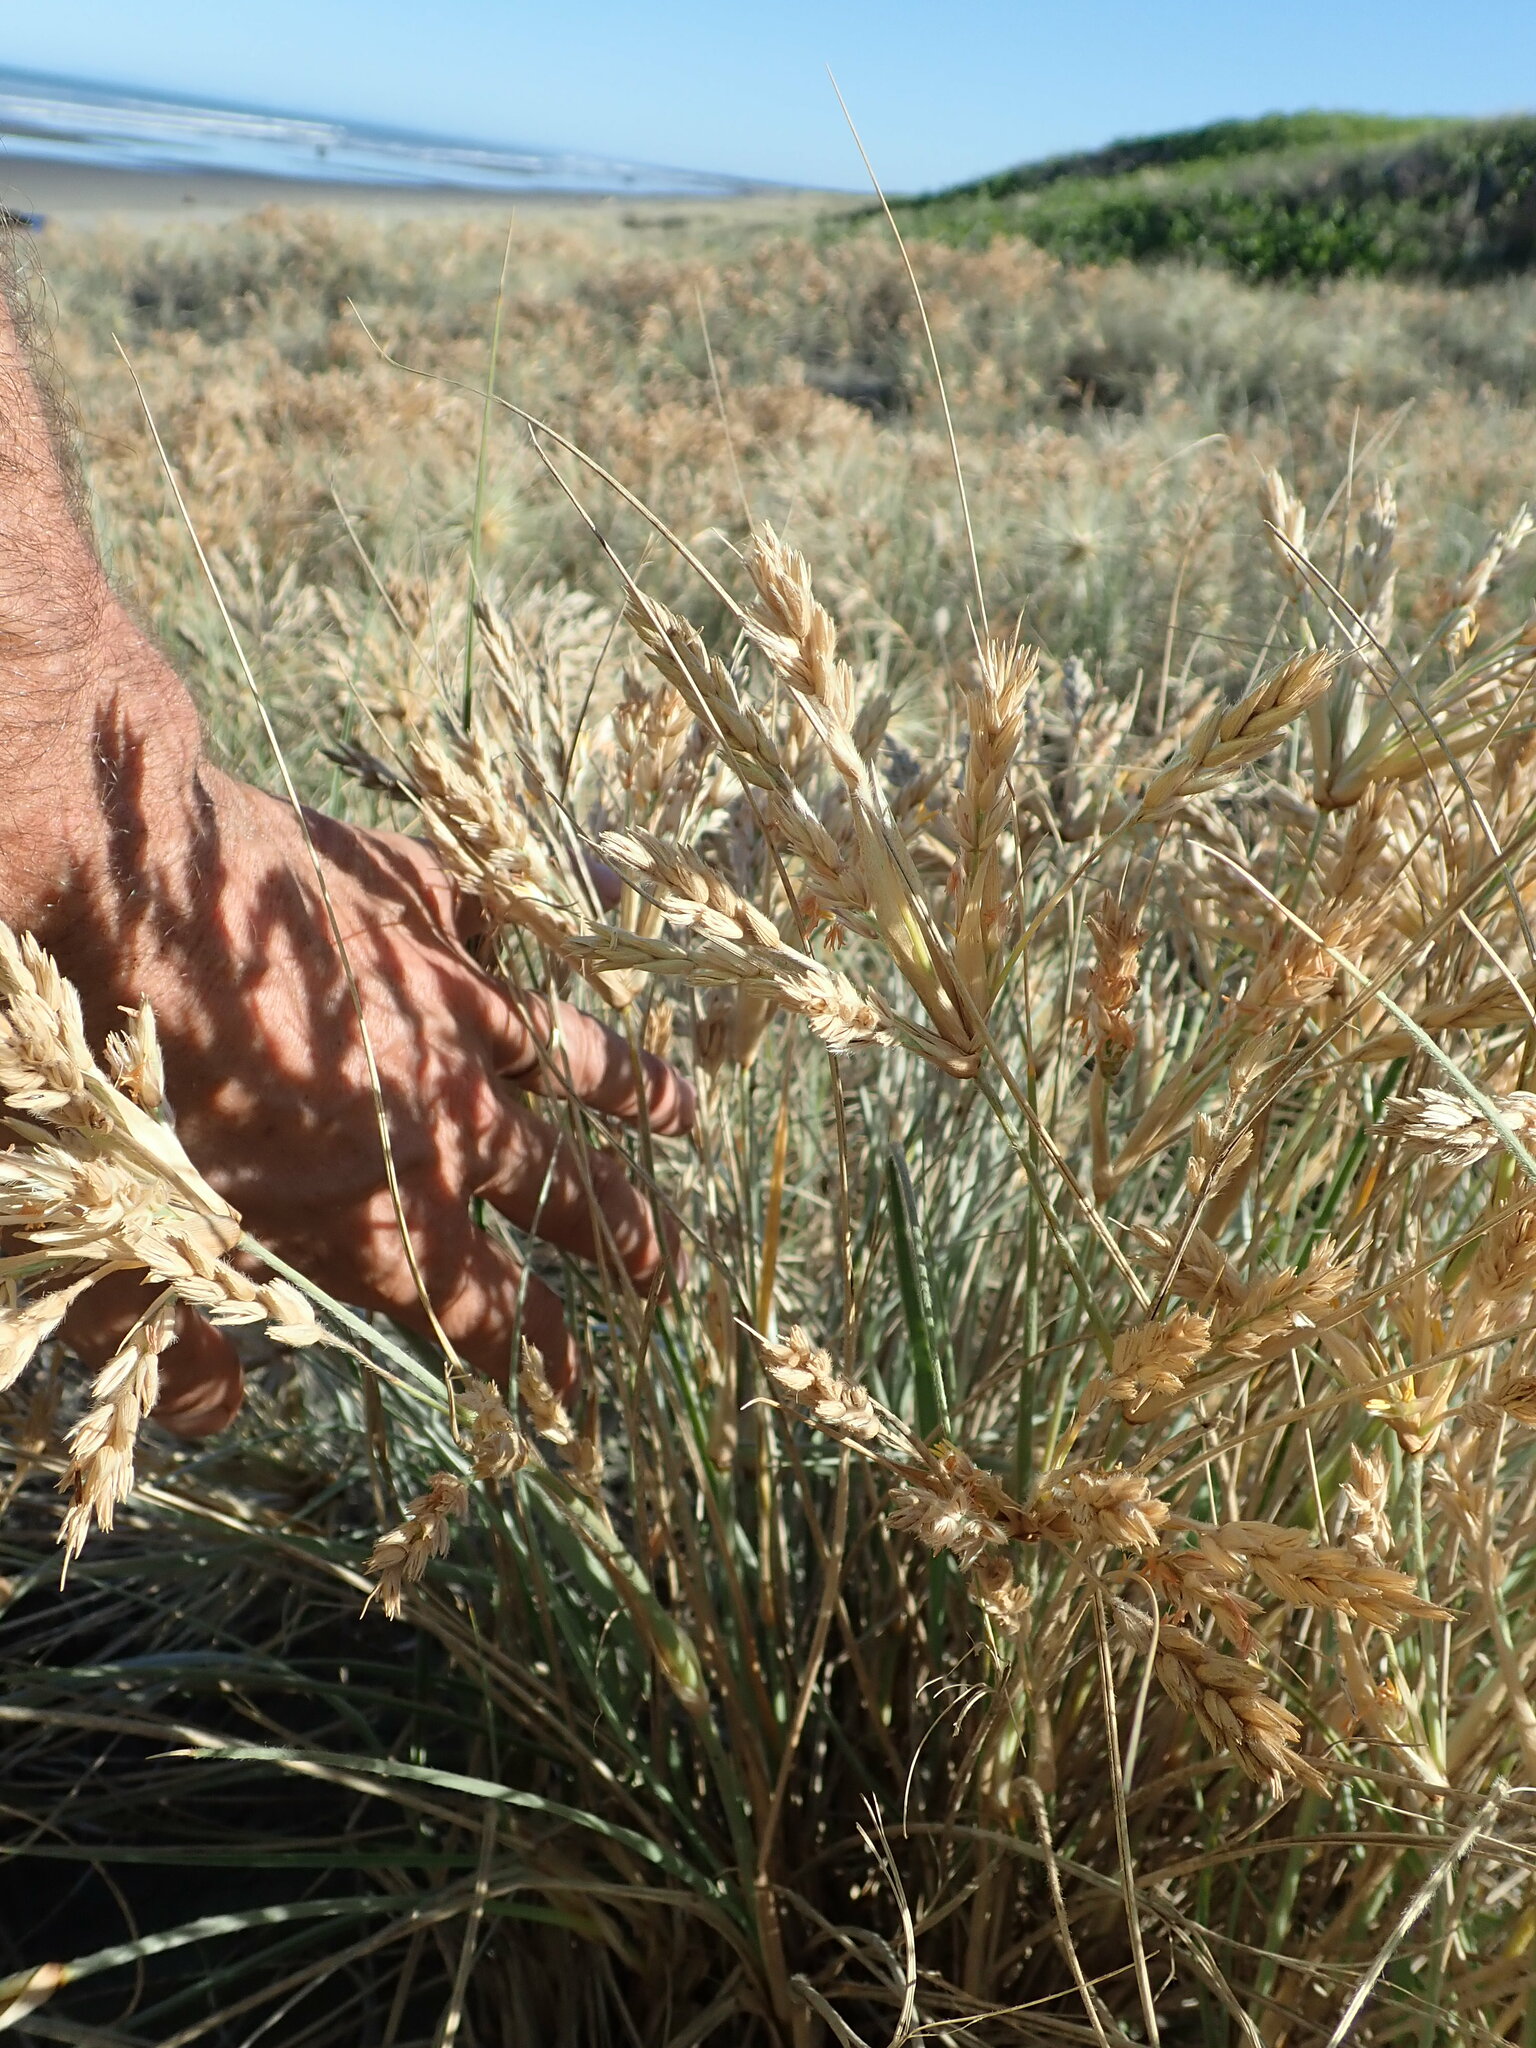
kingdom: Animalia
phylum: Arthropoda
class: Insecta
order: Coleoptera
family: Cerambycidae
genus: Arhopalus
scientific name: Arhopalus ferus
